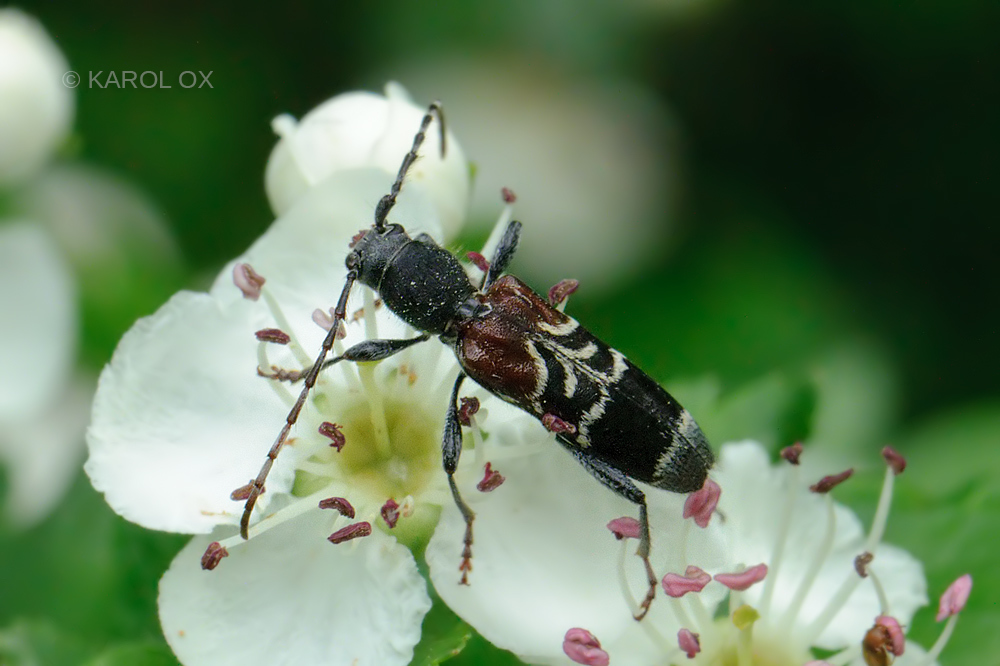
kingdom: Animalia
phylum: Arthropoda
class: Insecta
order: Coleoptera
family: Cerambycidae
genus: Anaglyptus
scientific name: Anaglyptus mysticus
